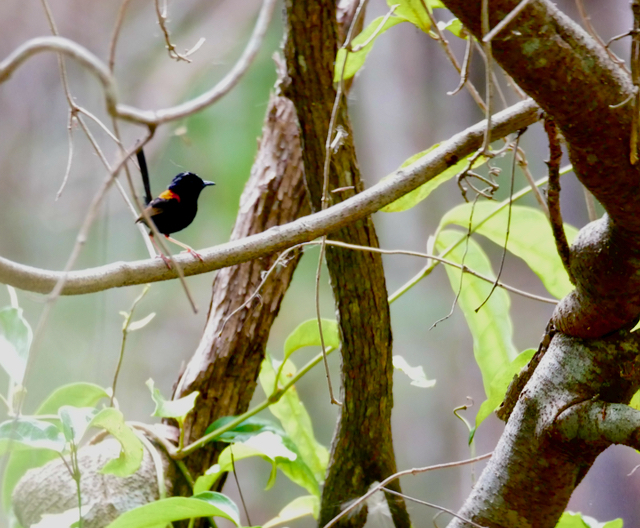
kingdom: Animalia
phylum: Chordata
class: Aves
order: Passeriformes
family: Maluridae
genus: Malurus
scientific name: Malurus melanocephalus
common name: Red-backed fairywren
